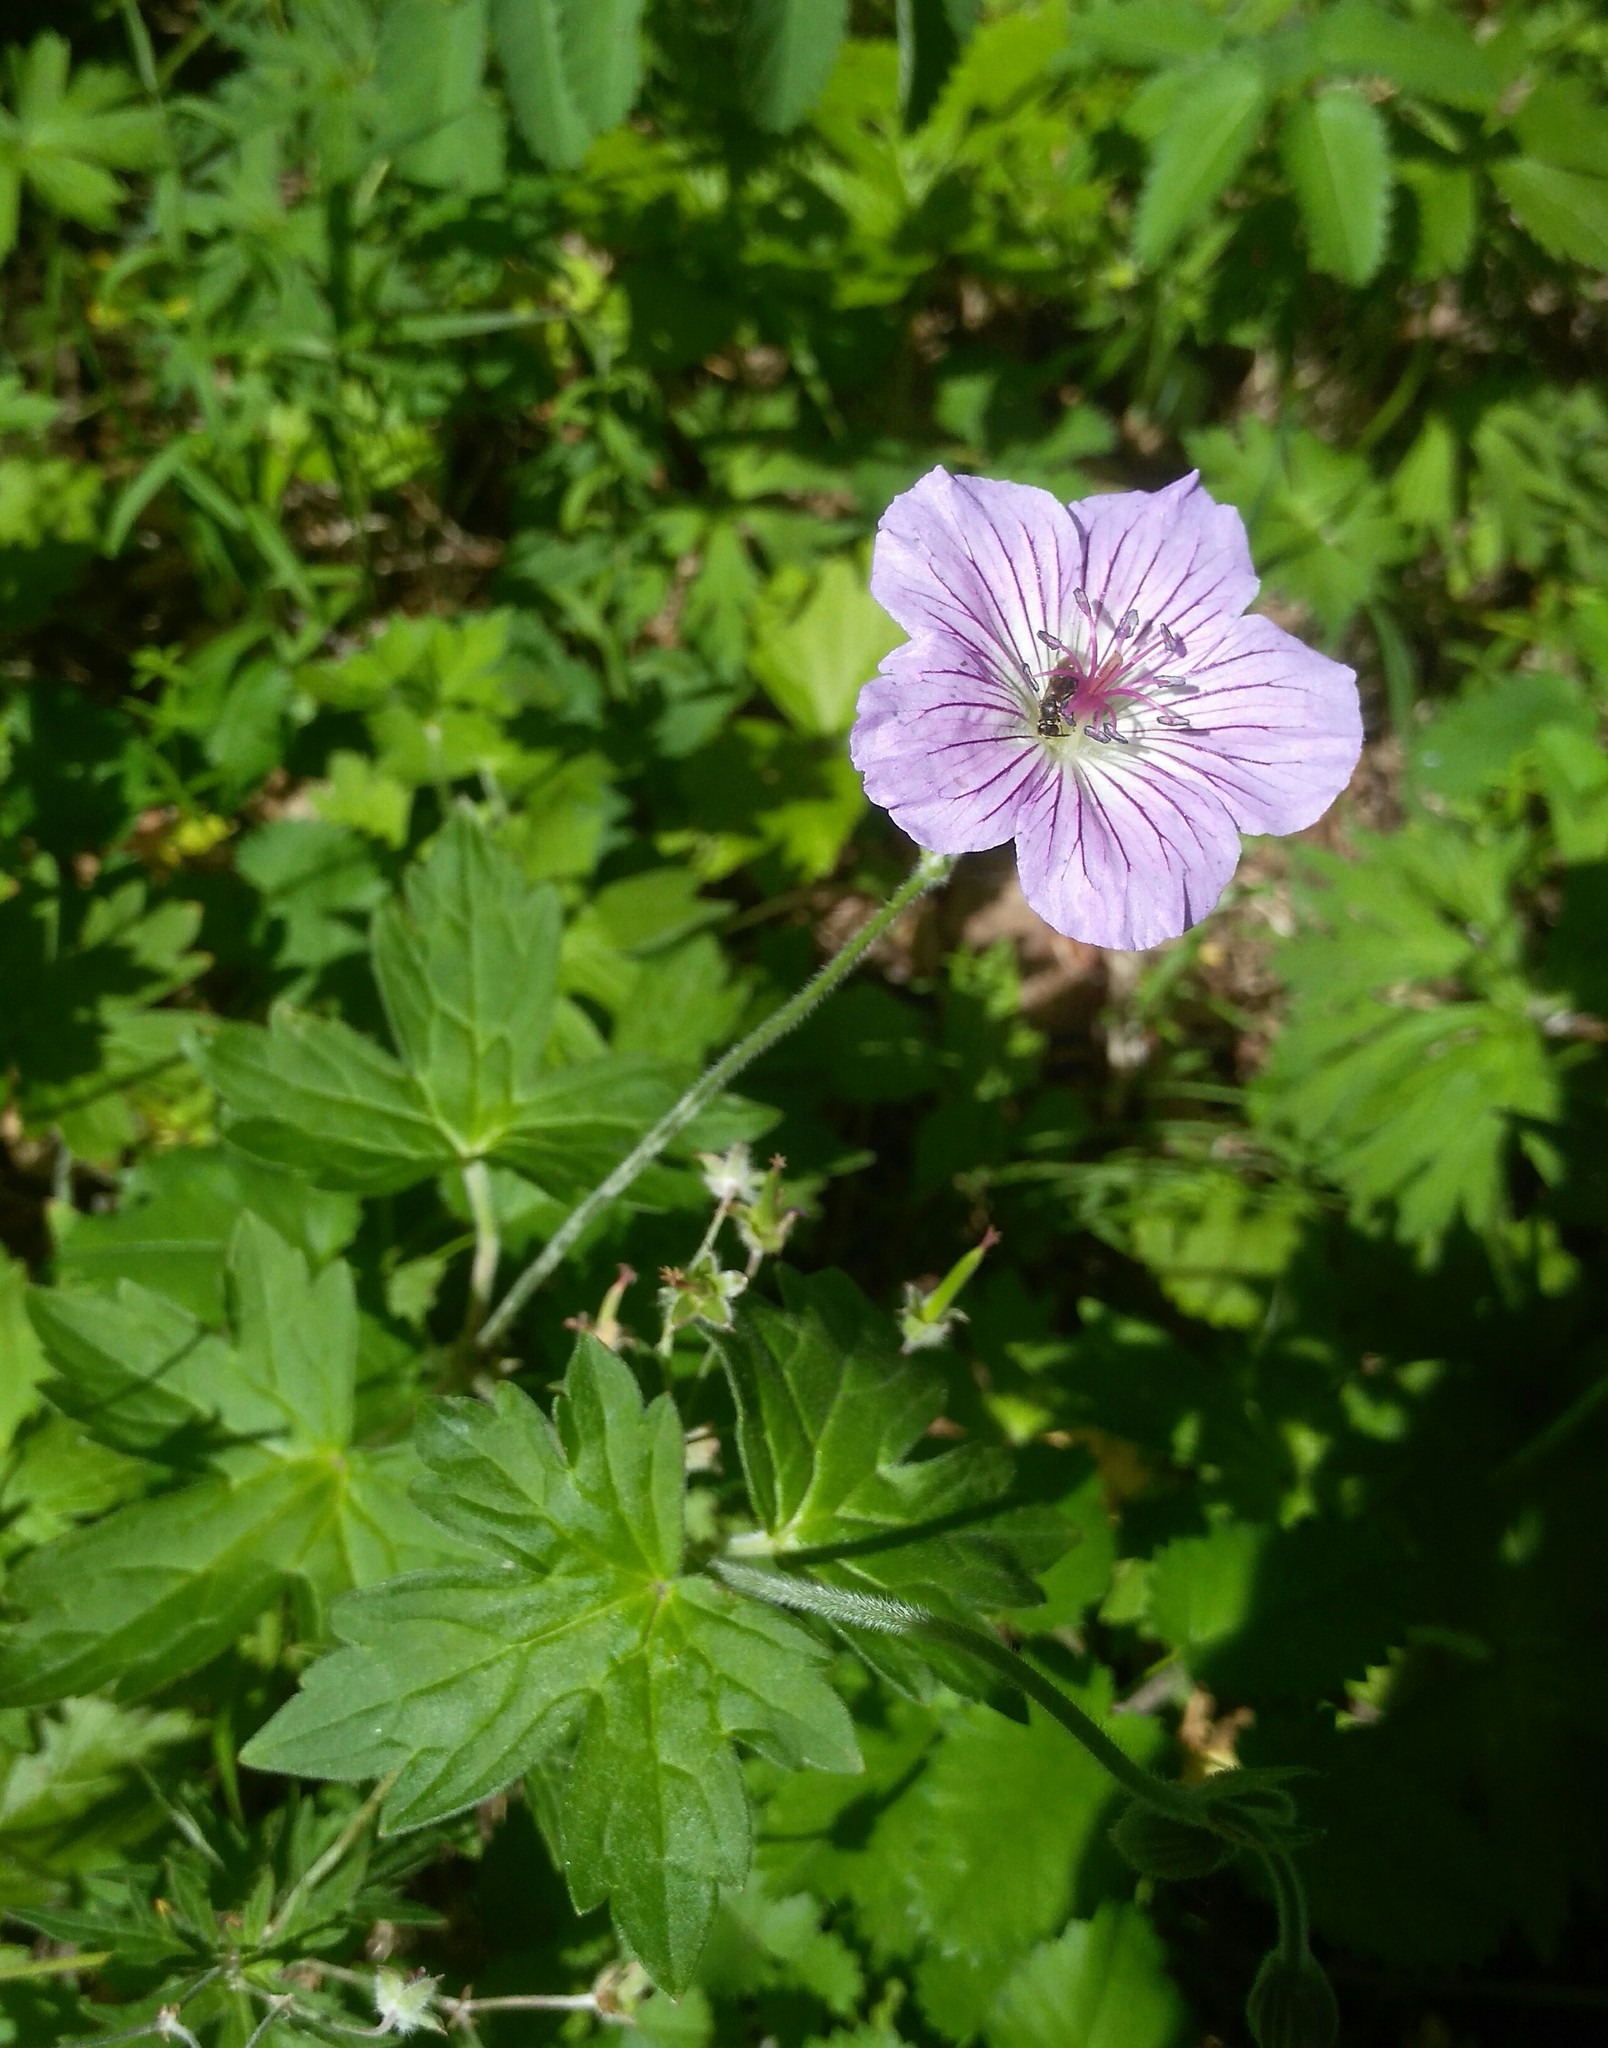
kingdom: Plantae
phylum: Tracheophyta
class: Magnoliopsida
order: Geraniales
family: Geraniaceae
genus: Geranium
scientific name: Geranium wlassovianum
